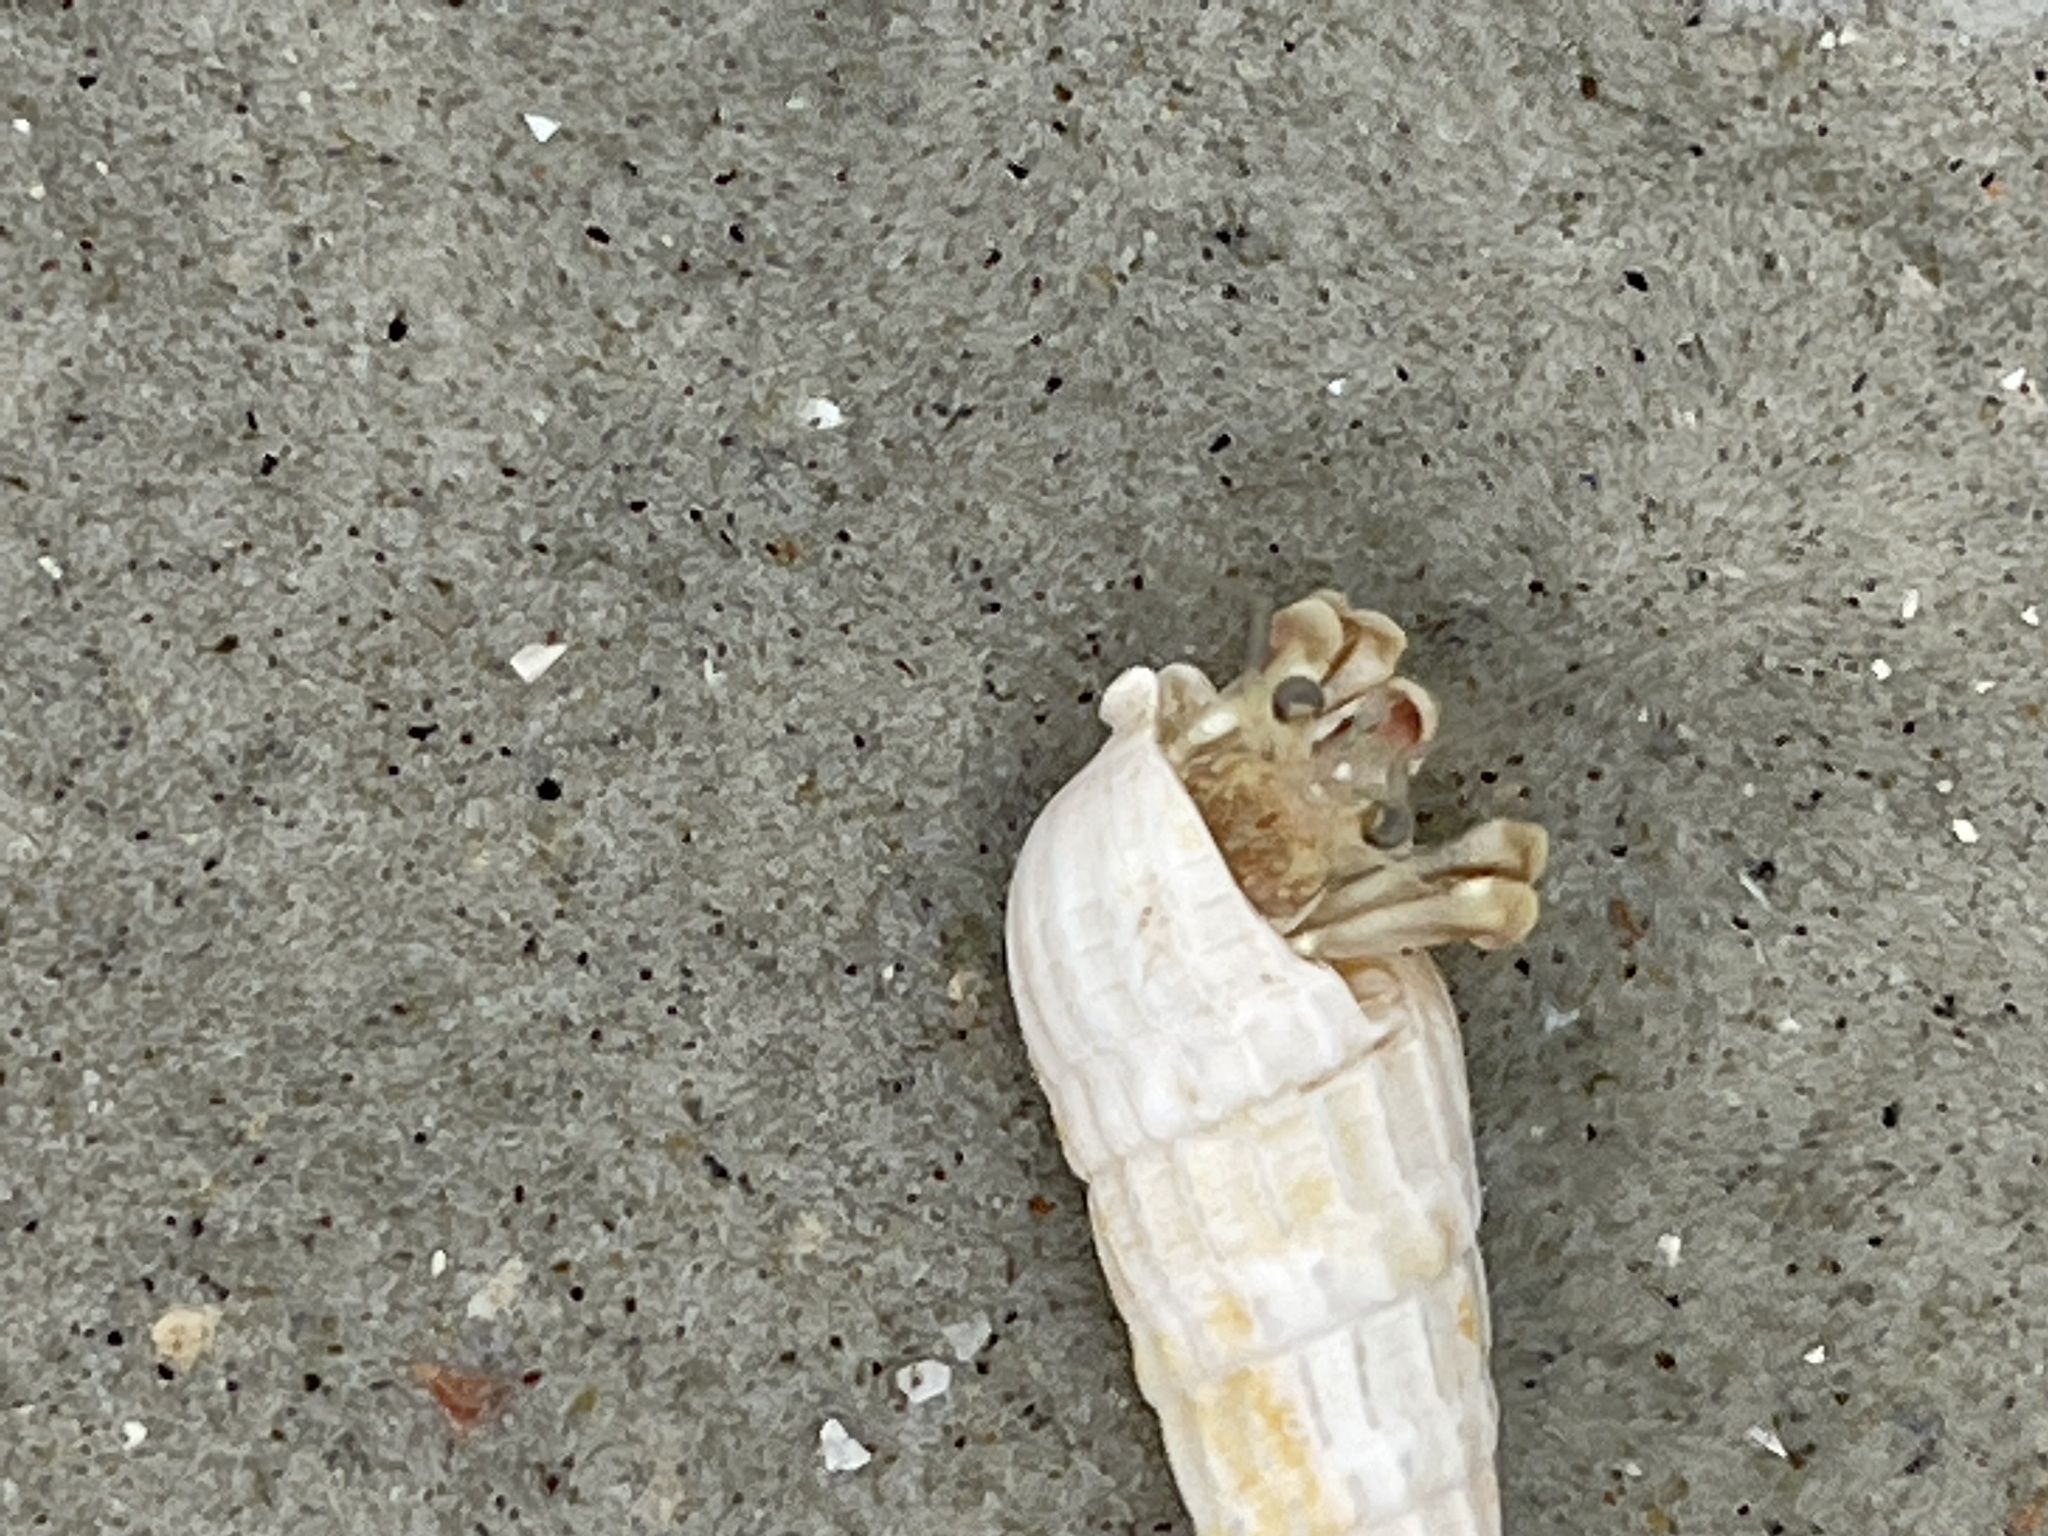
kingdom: Animalia
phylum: Arthropoda
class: Malacostraca
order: Decapoda
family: Paguridae
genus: Pagurus
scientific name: Pagurus longicarpus
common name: Long-armed hermit crab
